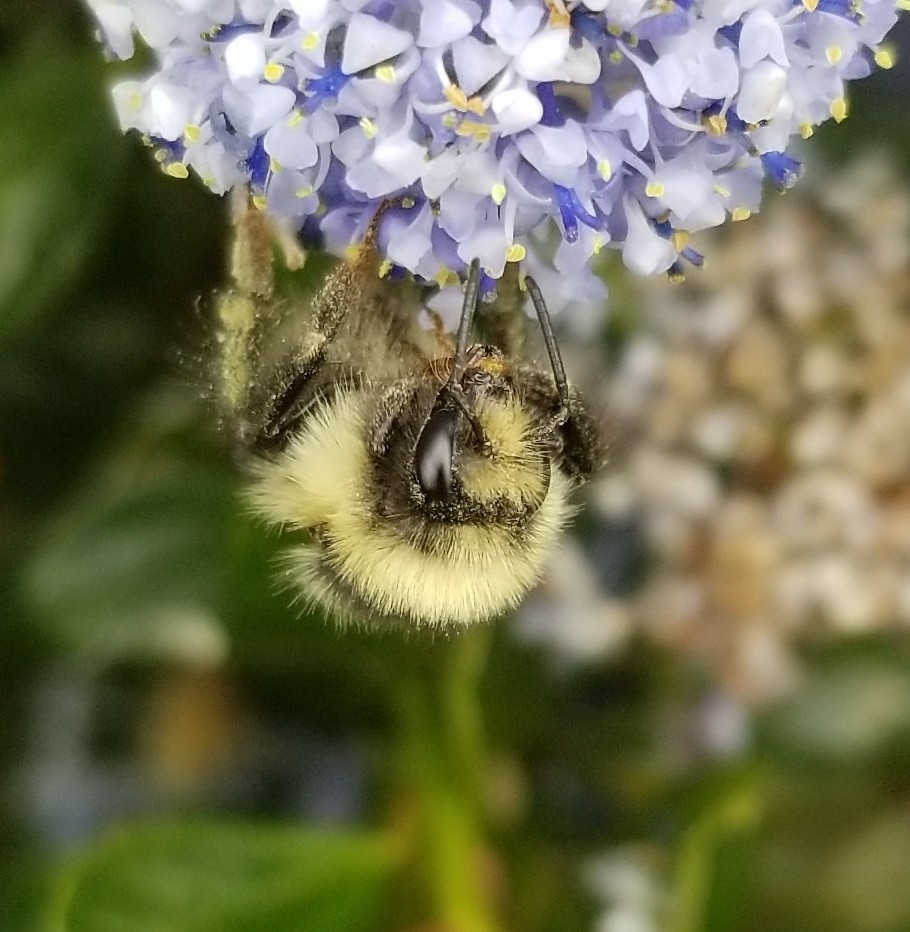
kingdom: Animalia
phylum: Arthropoda
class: Insecta
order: Hymenoptera
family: Apidae
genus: Bombus
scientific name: Bombus melanopygus
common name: Black tail bumble bee
